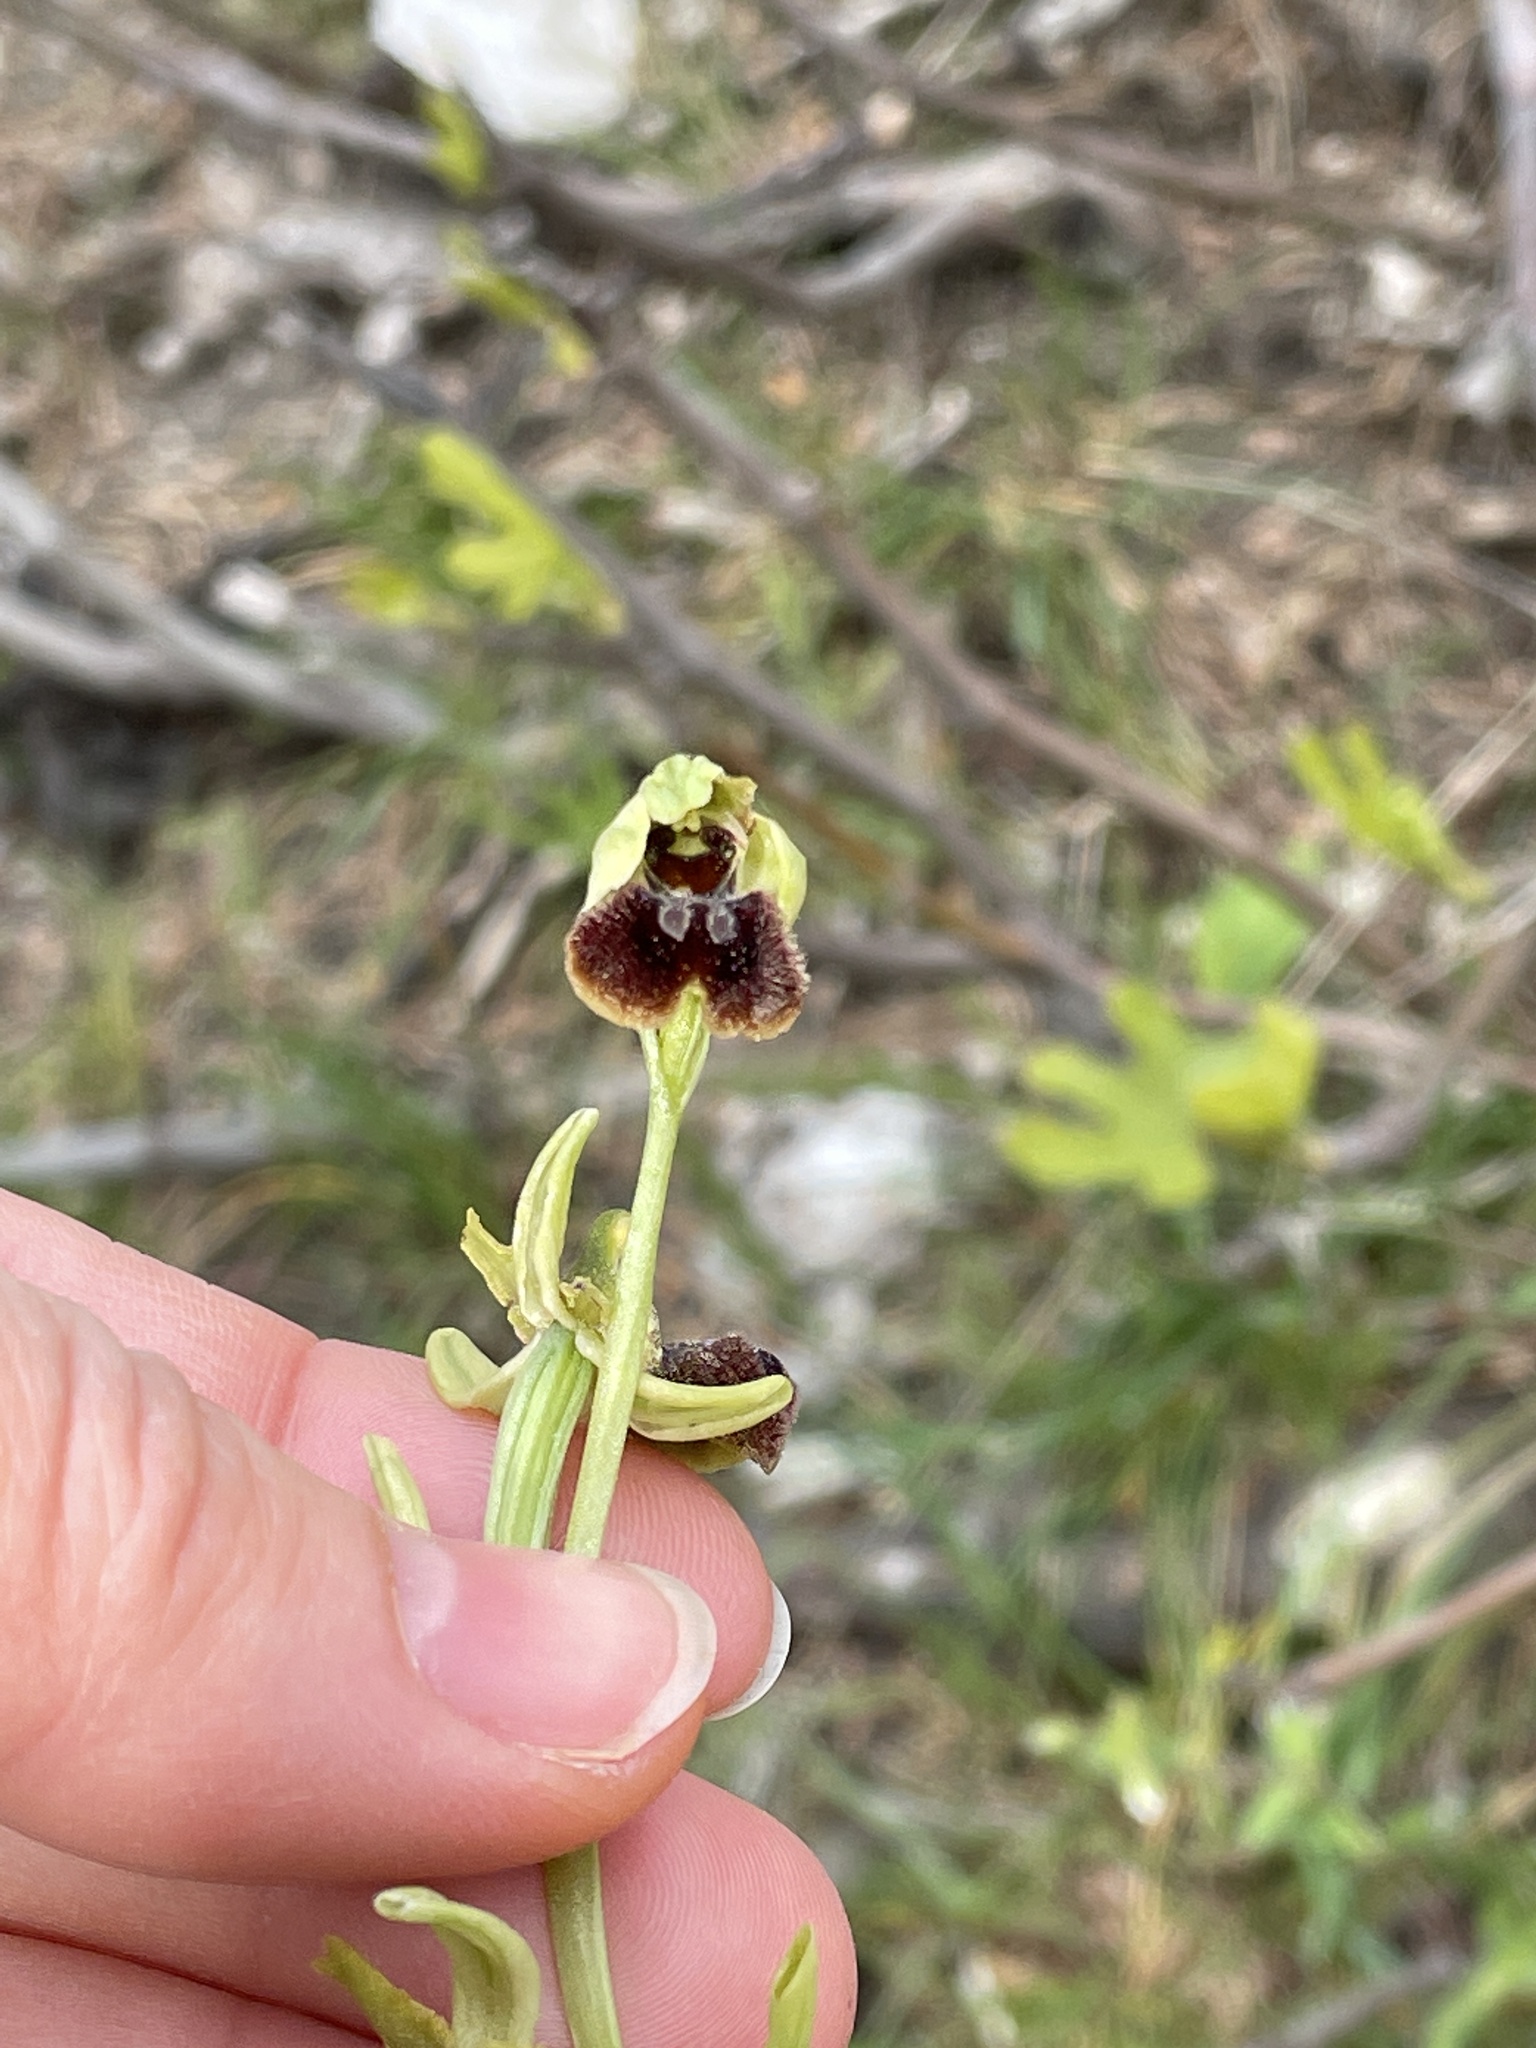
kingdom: Plantae
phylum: Tracheophyta
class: Liliopsida
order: Asparagales
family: Orchidaceae
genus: Ophrys
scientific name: Ophrys sphegodes
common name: Early spider-orchid
